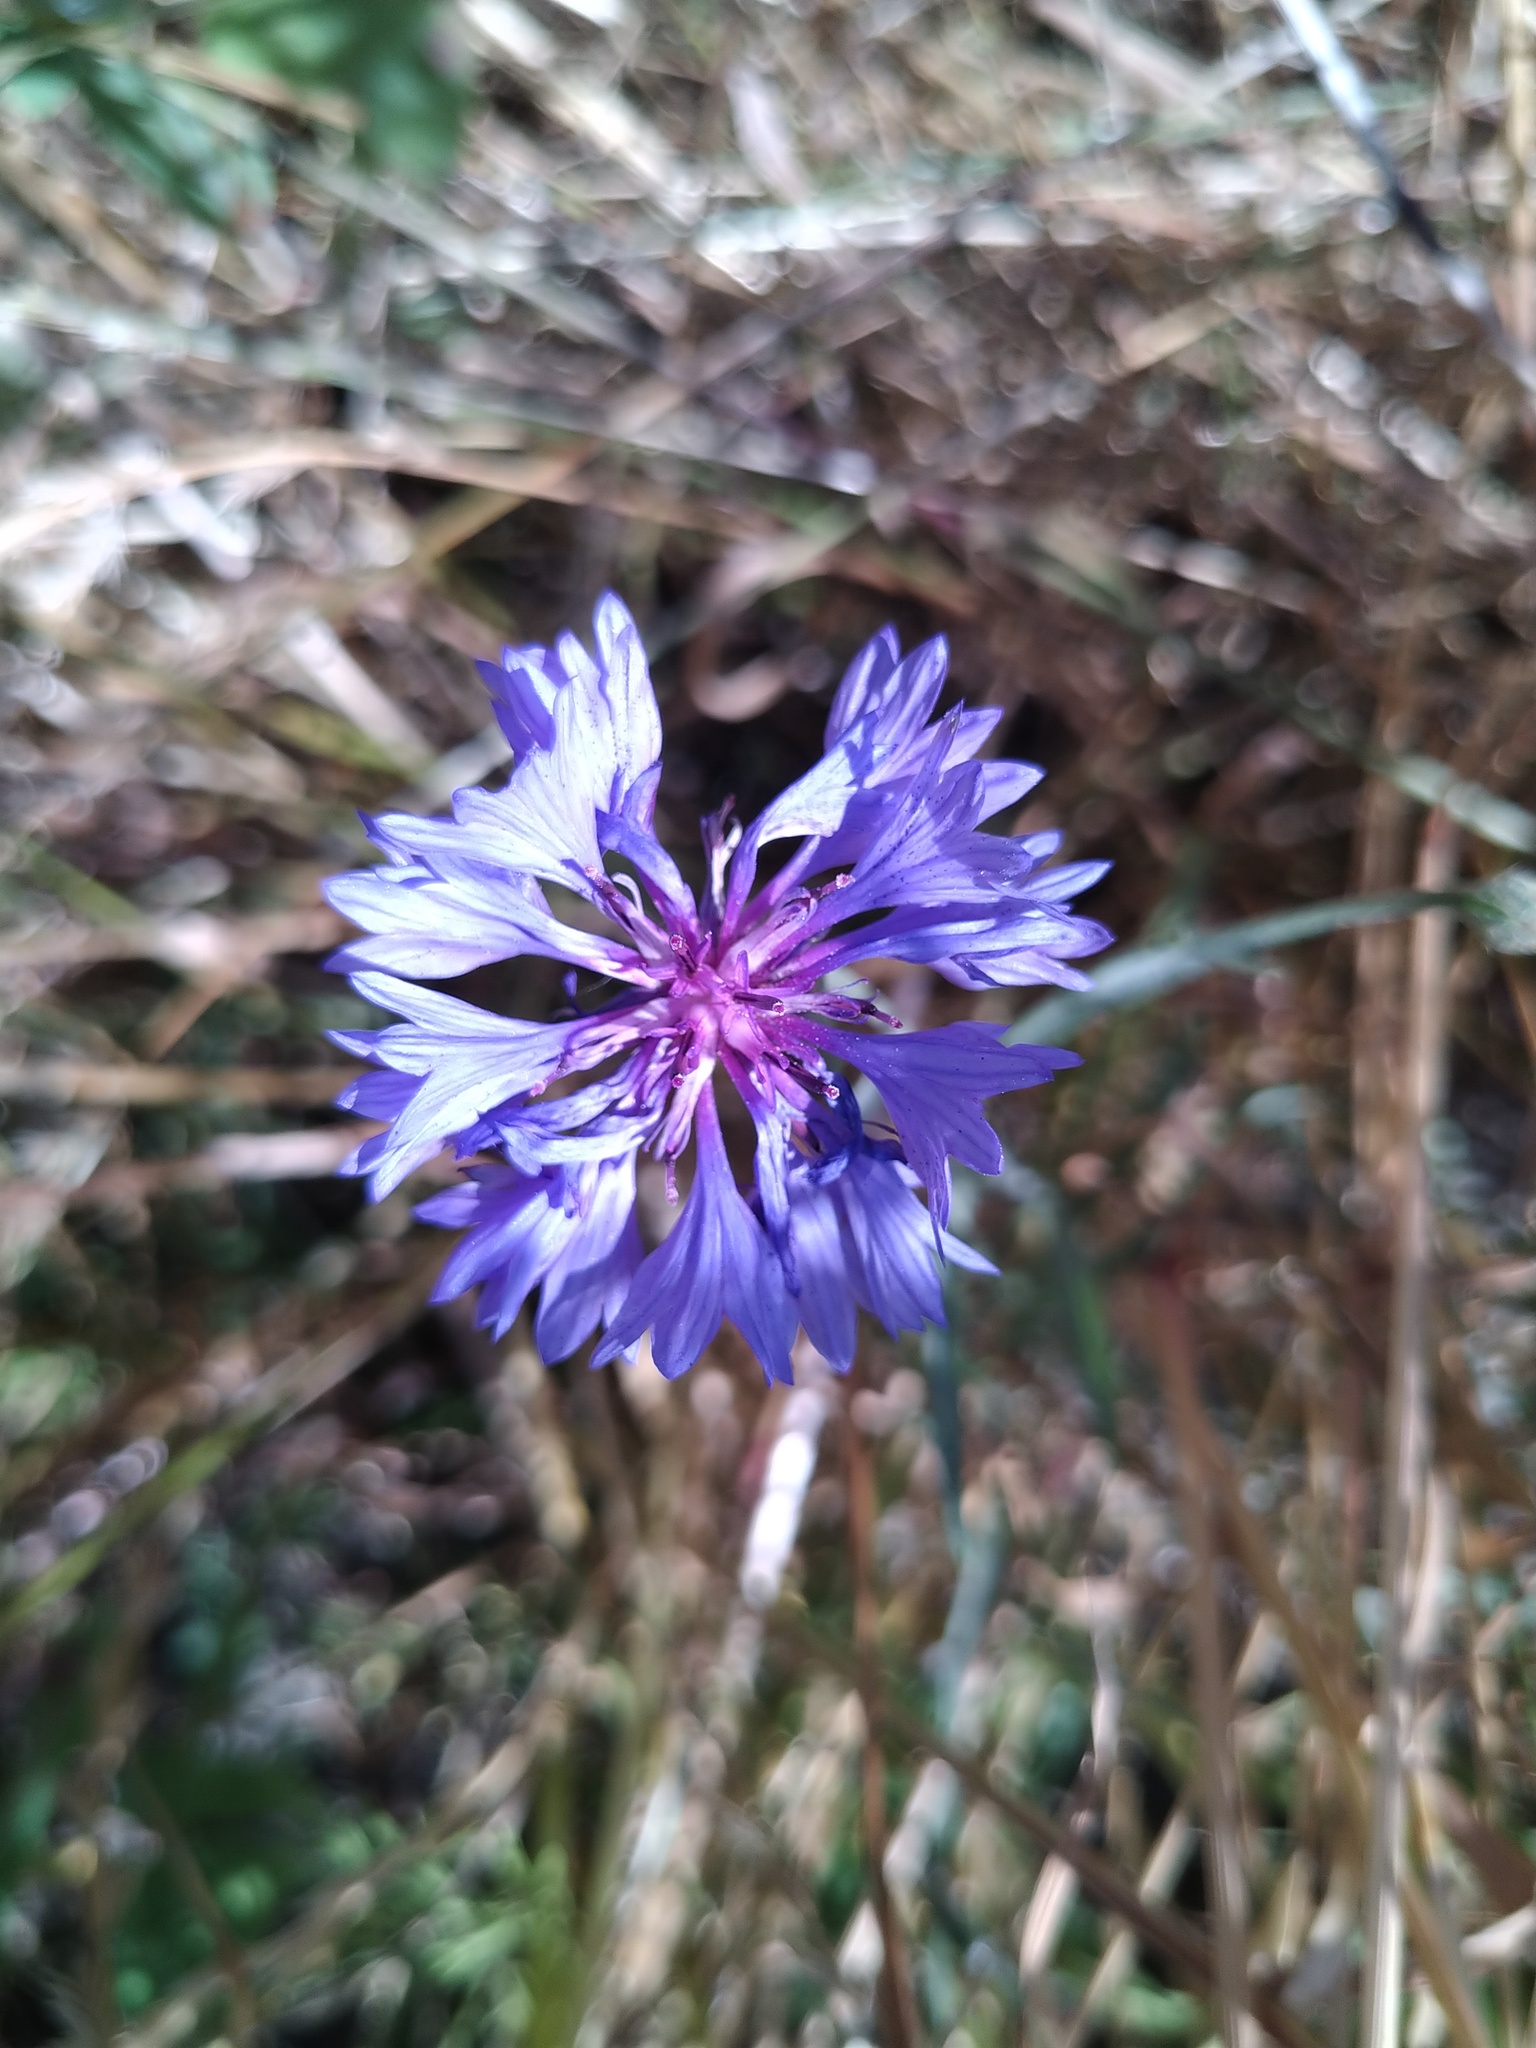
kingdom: Plantae
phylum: Tracheophyta
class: Magnoliopsida
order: Asterales
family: Asteraceae
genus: Centaurea
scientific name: Centaurea cyanus
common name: Cornflower
